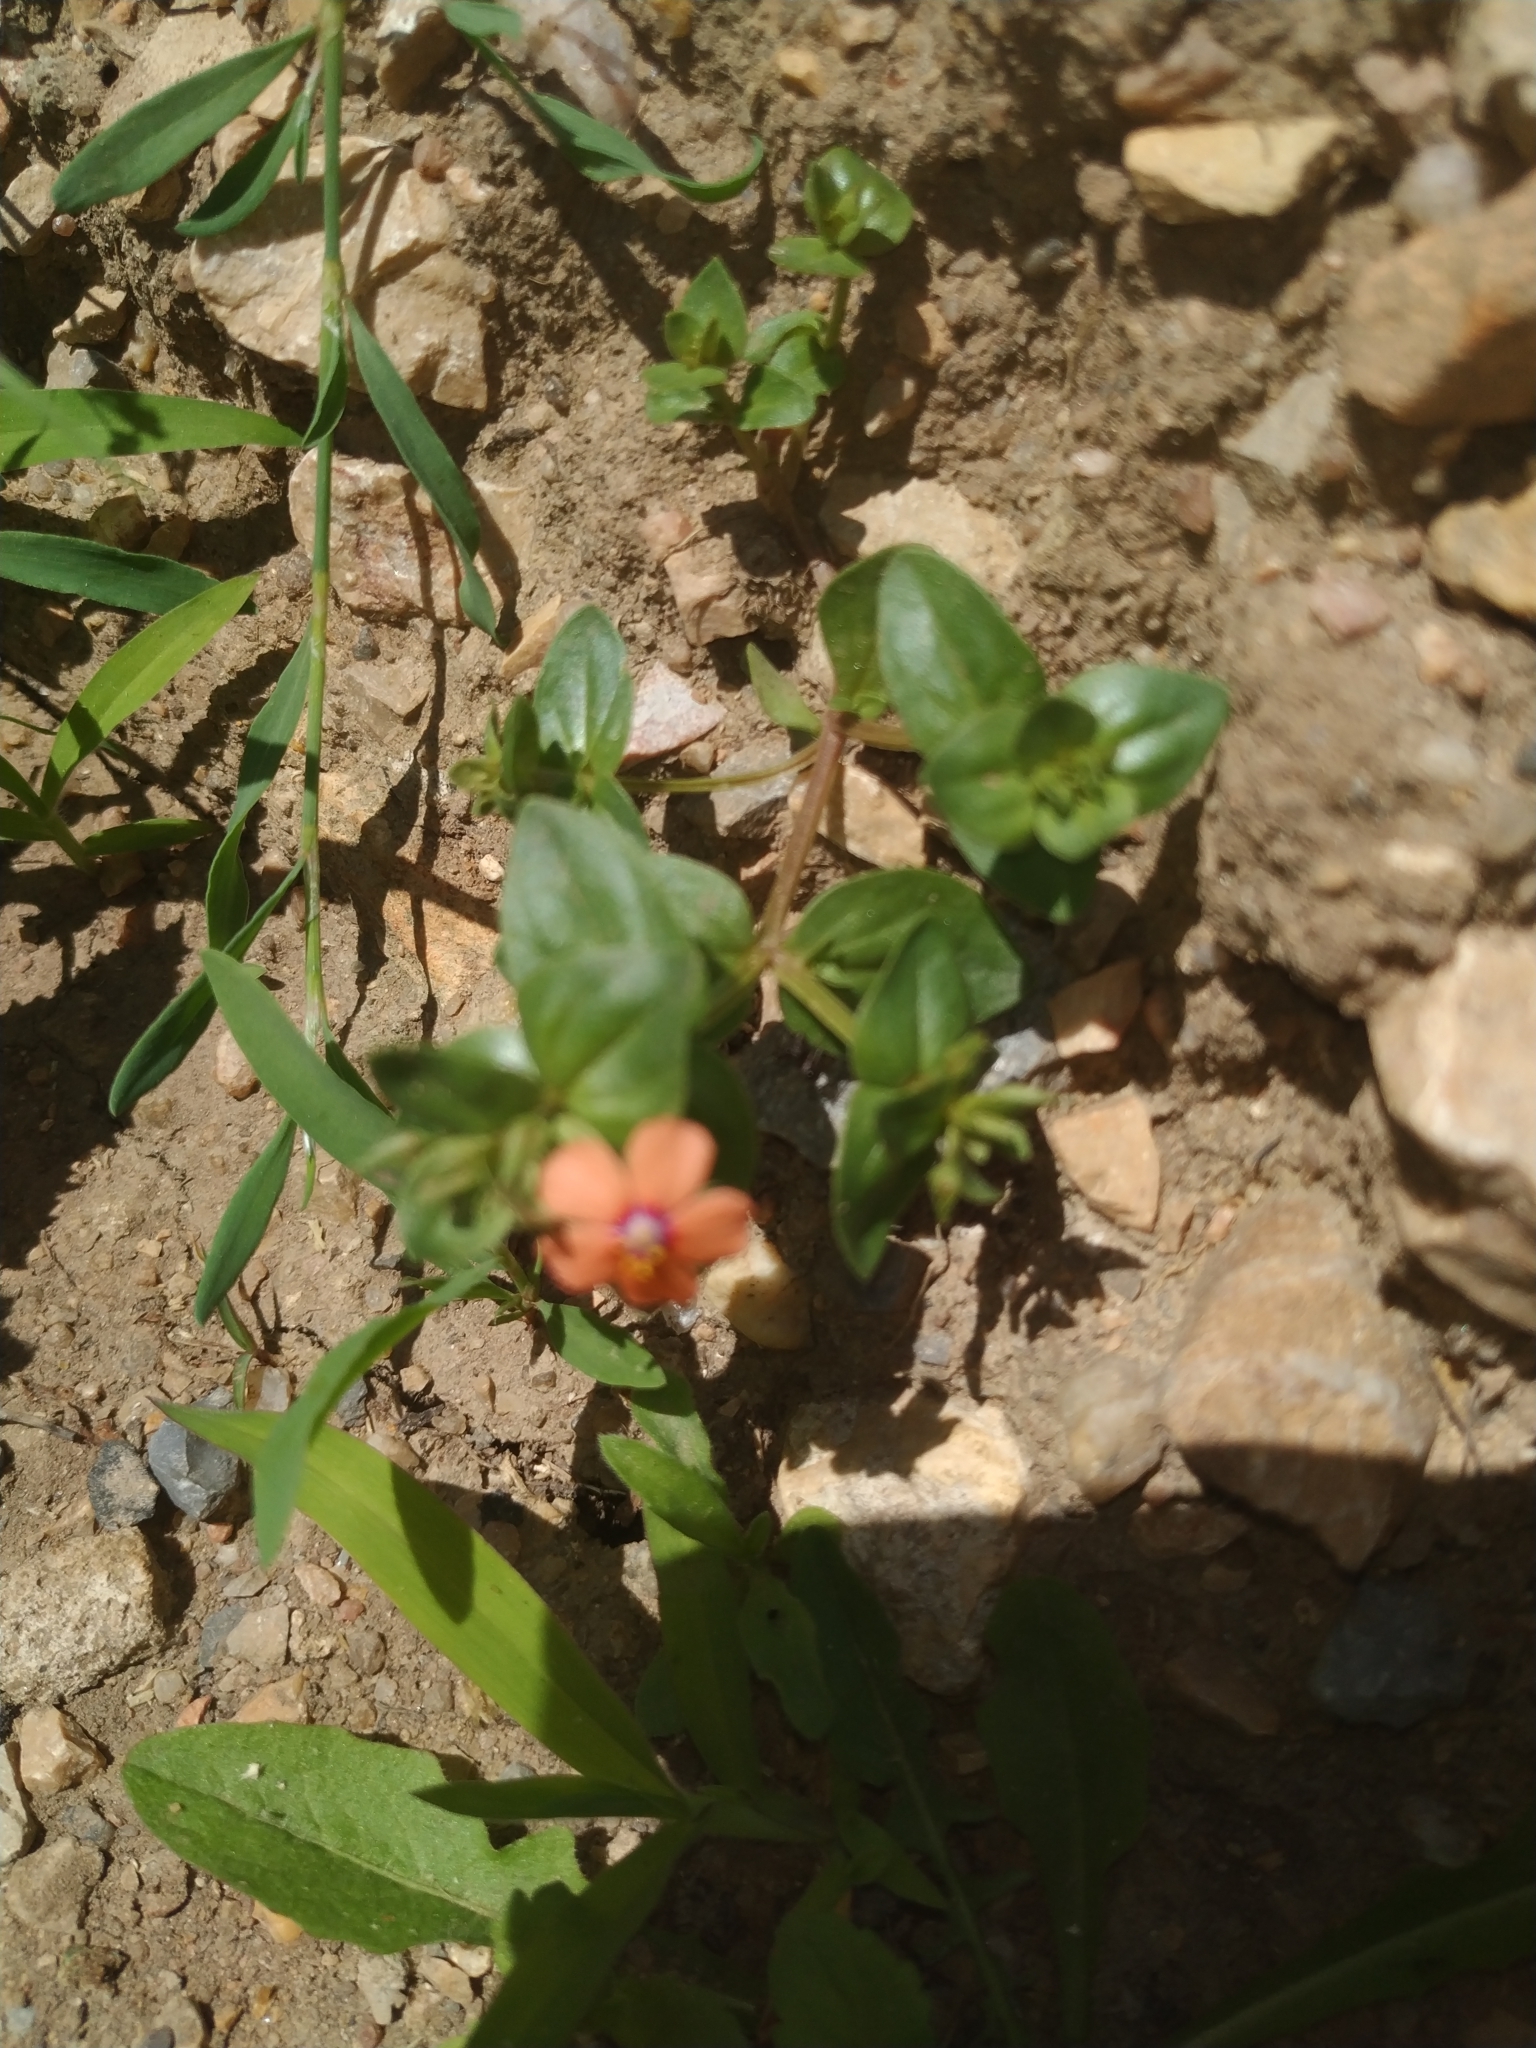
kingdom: Plantae
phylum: Tracheophyta
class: Magnoliopsida
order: Ericales
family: Primulaceae
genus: Lysimachia
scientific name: Lysimachia arvensis
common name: Scarlet pimpernel
